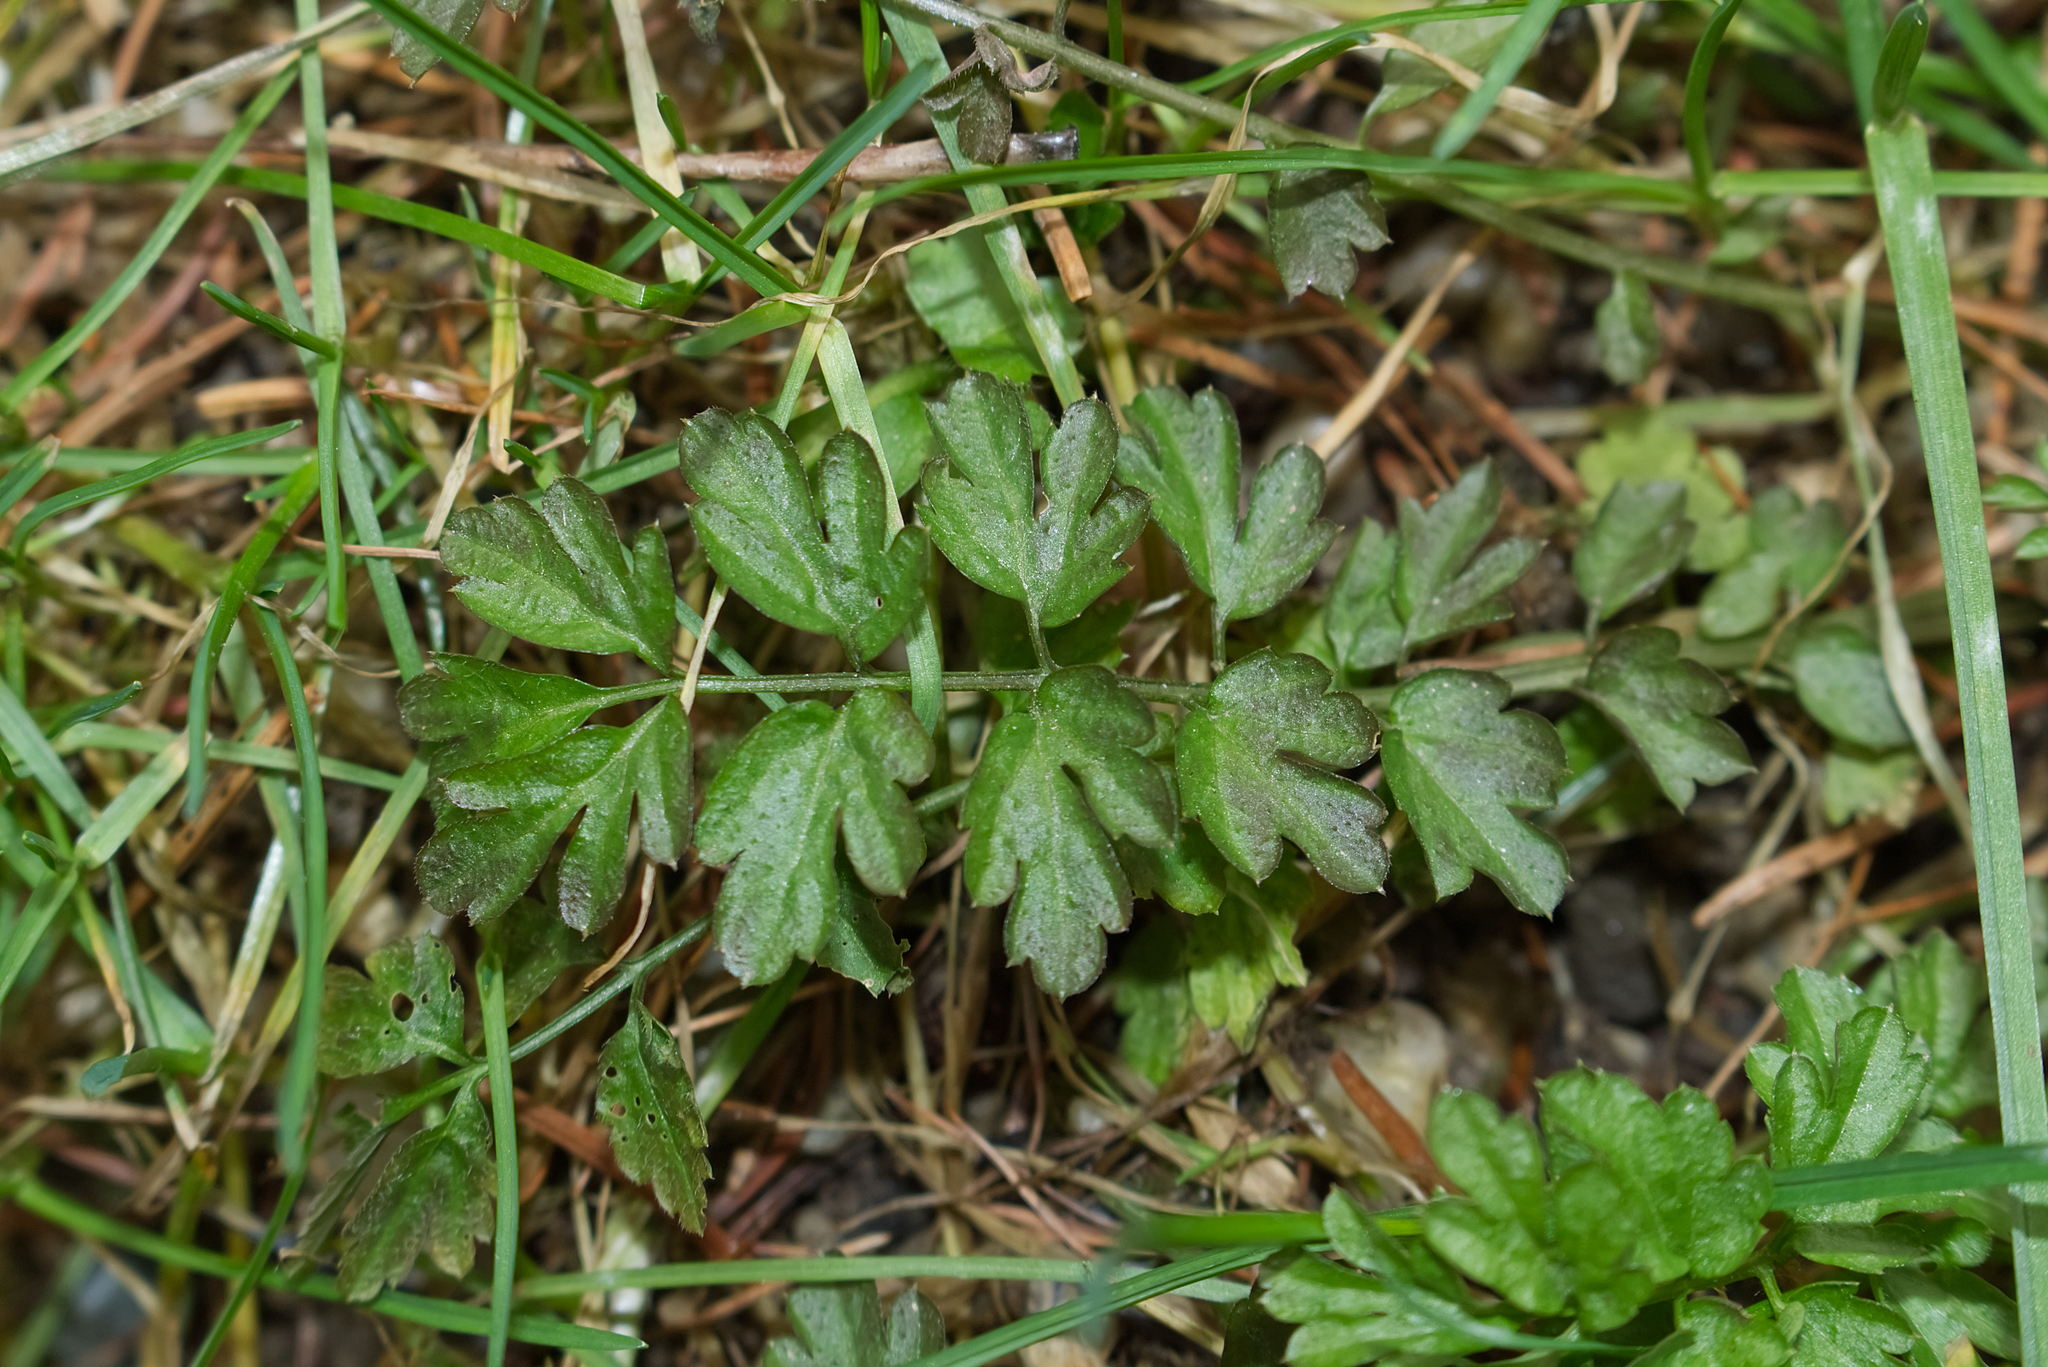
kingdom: Plantae
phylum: Tracheophyta
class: Magnoliopsida
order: Brassicales
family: Brassicaceae
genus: Cardamine
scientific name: Cardamine impatiens
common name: Narrow-leaved bitter-cress
